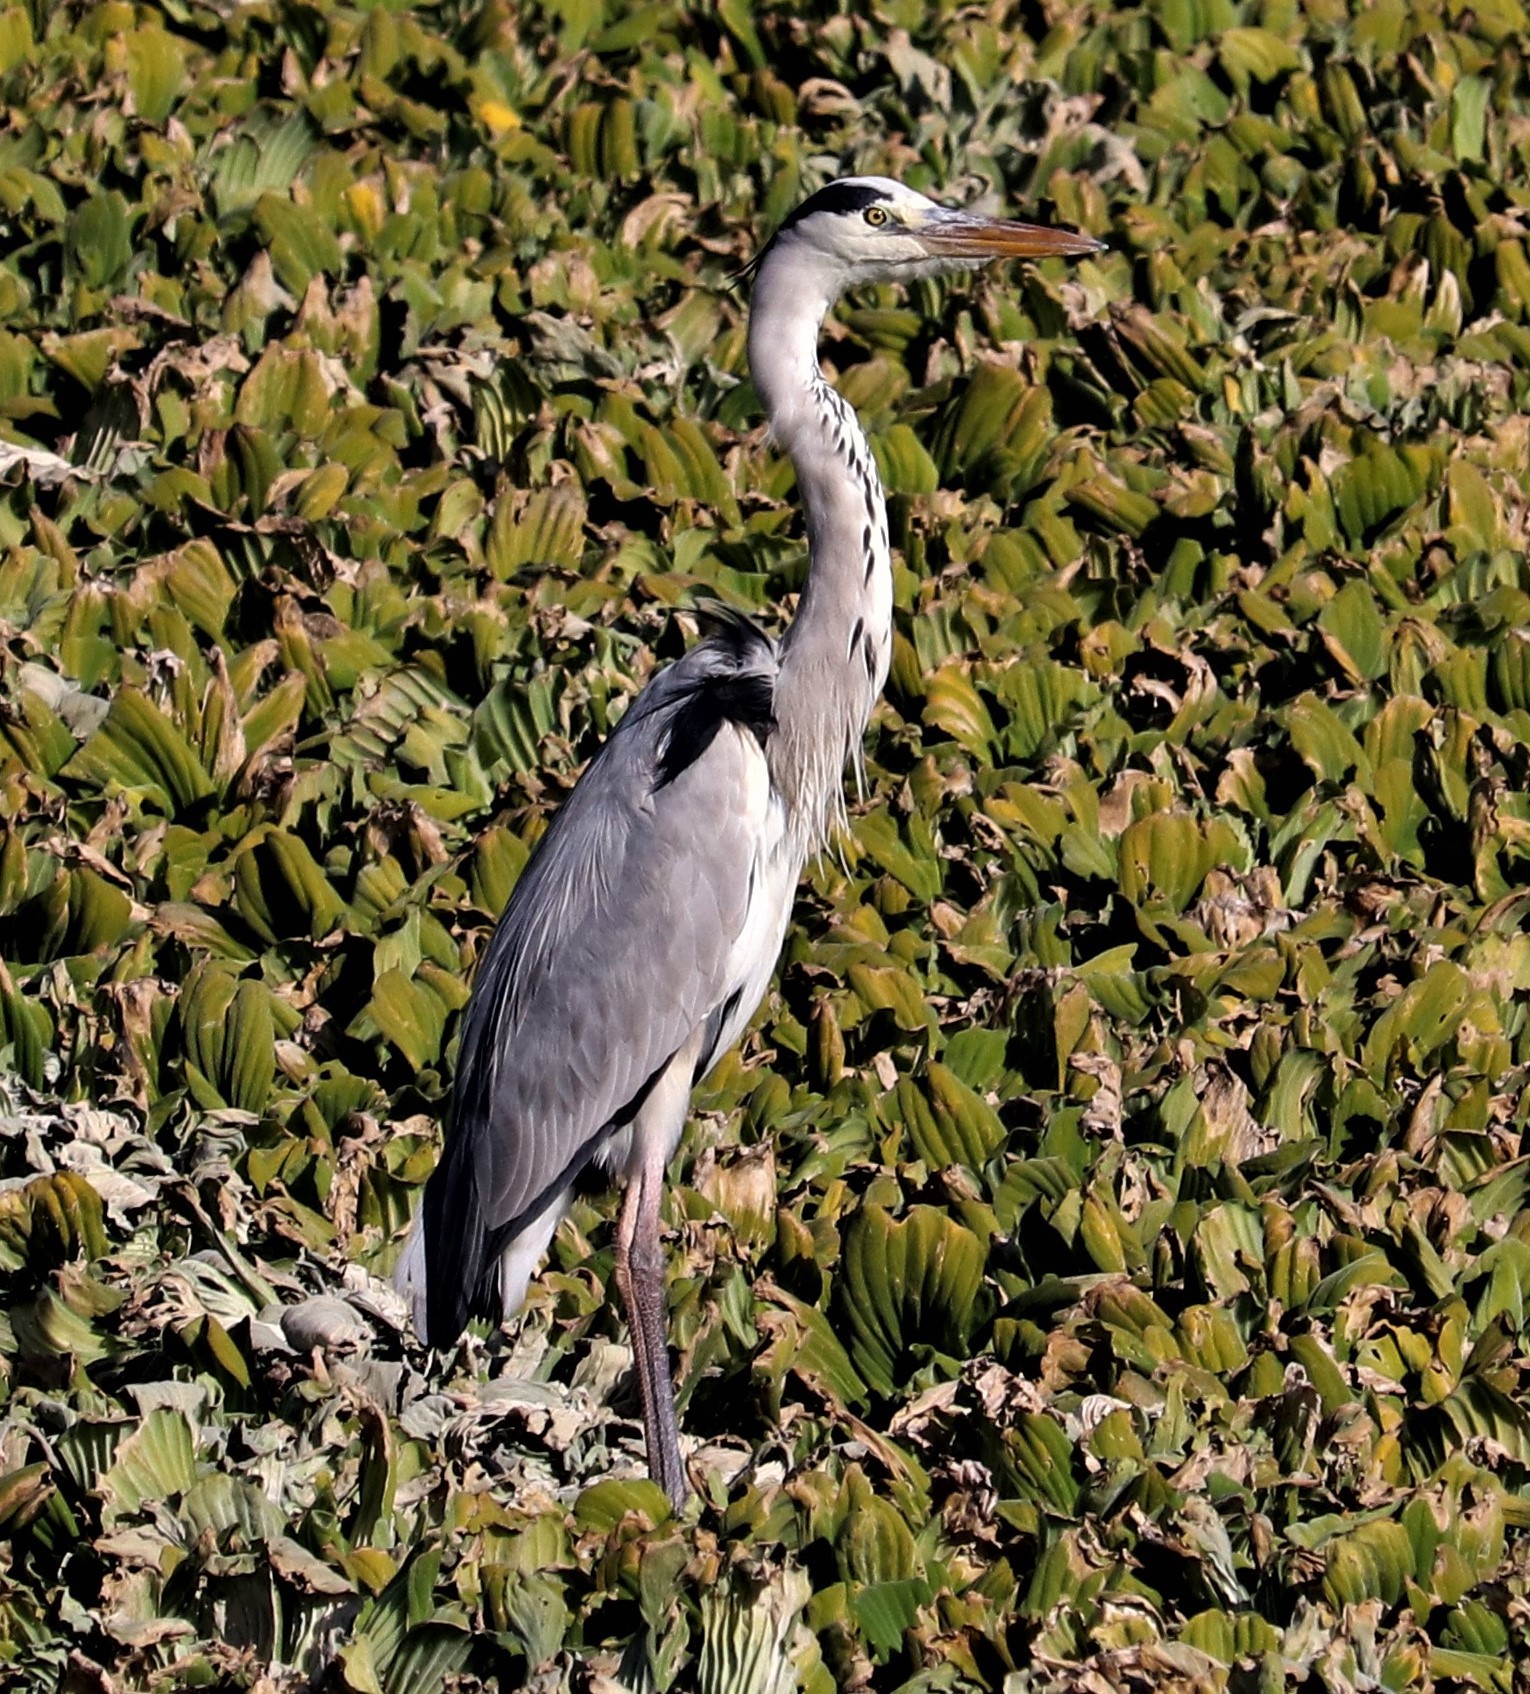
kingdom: Animalia
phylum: Chordata
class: Aves
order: Pelecaniformes
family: Ardeidae
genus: Ardea
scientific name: Ardea cinerea
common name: Grey heron
